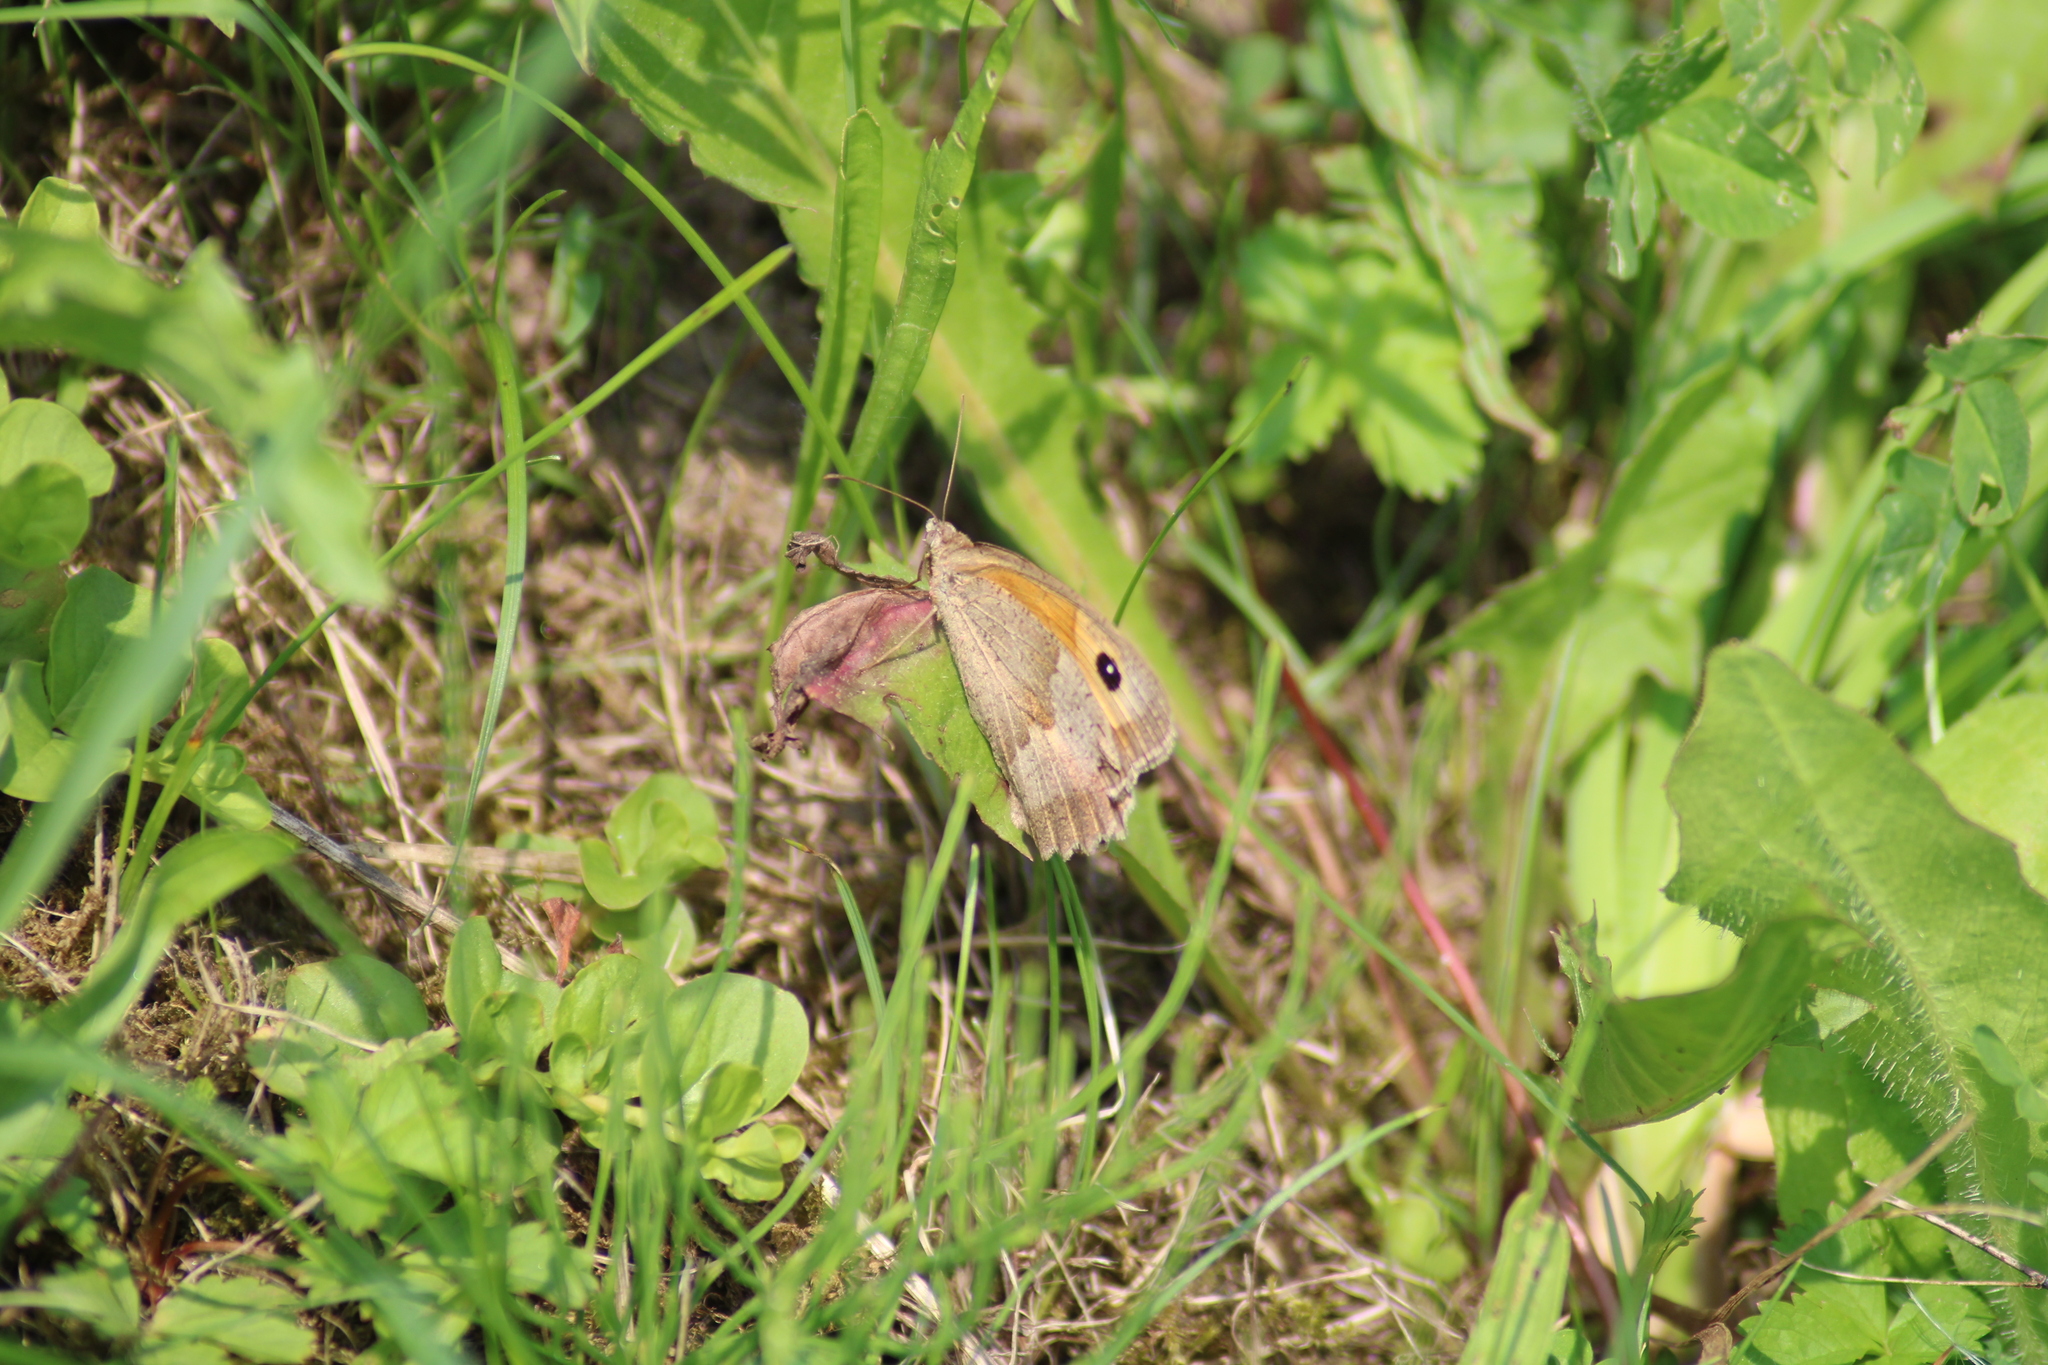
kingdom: Animalia
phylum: Arthropoda
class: Insecta
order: Lepidoptera
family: Nymphalidae
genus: Maniola
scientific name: Maniola jurtina
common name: Meadow brown
